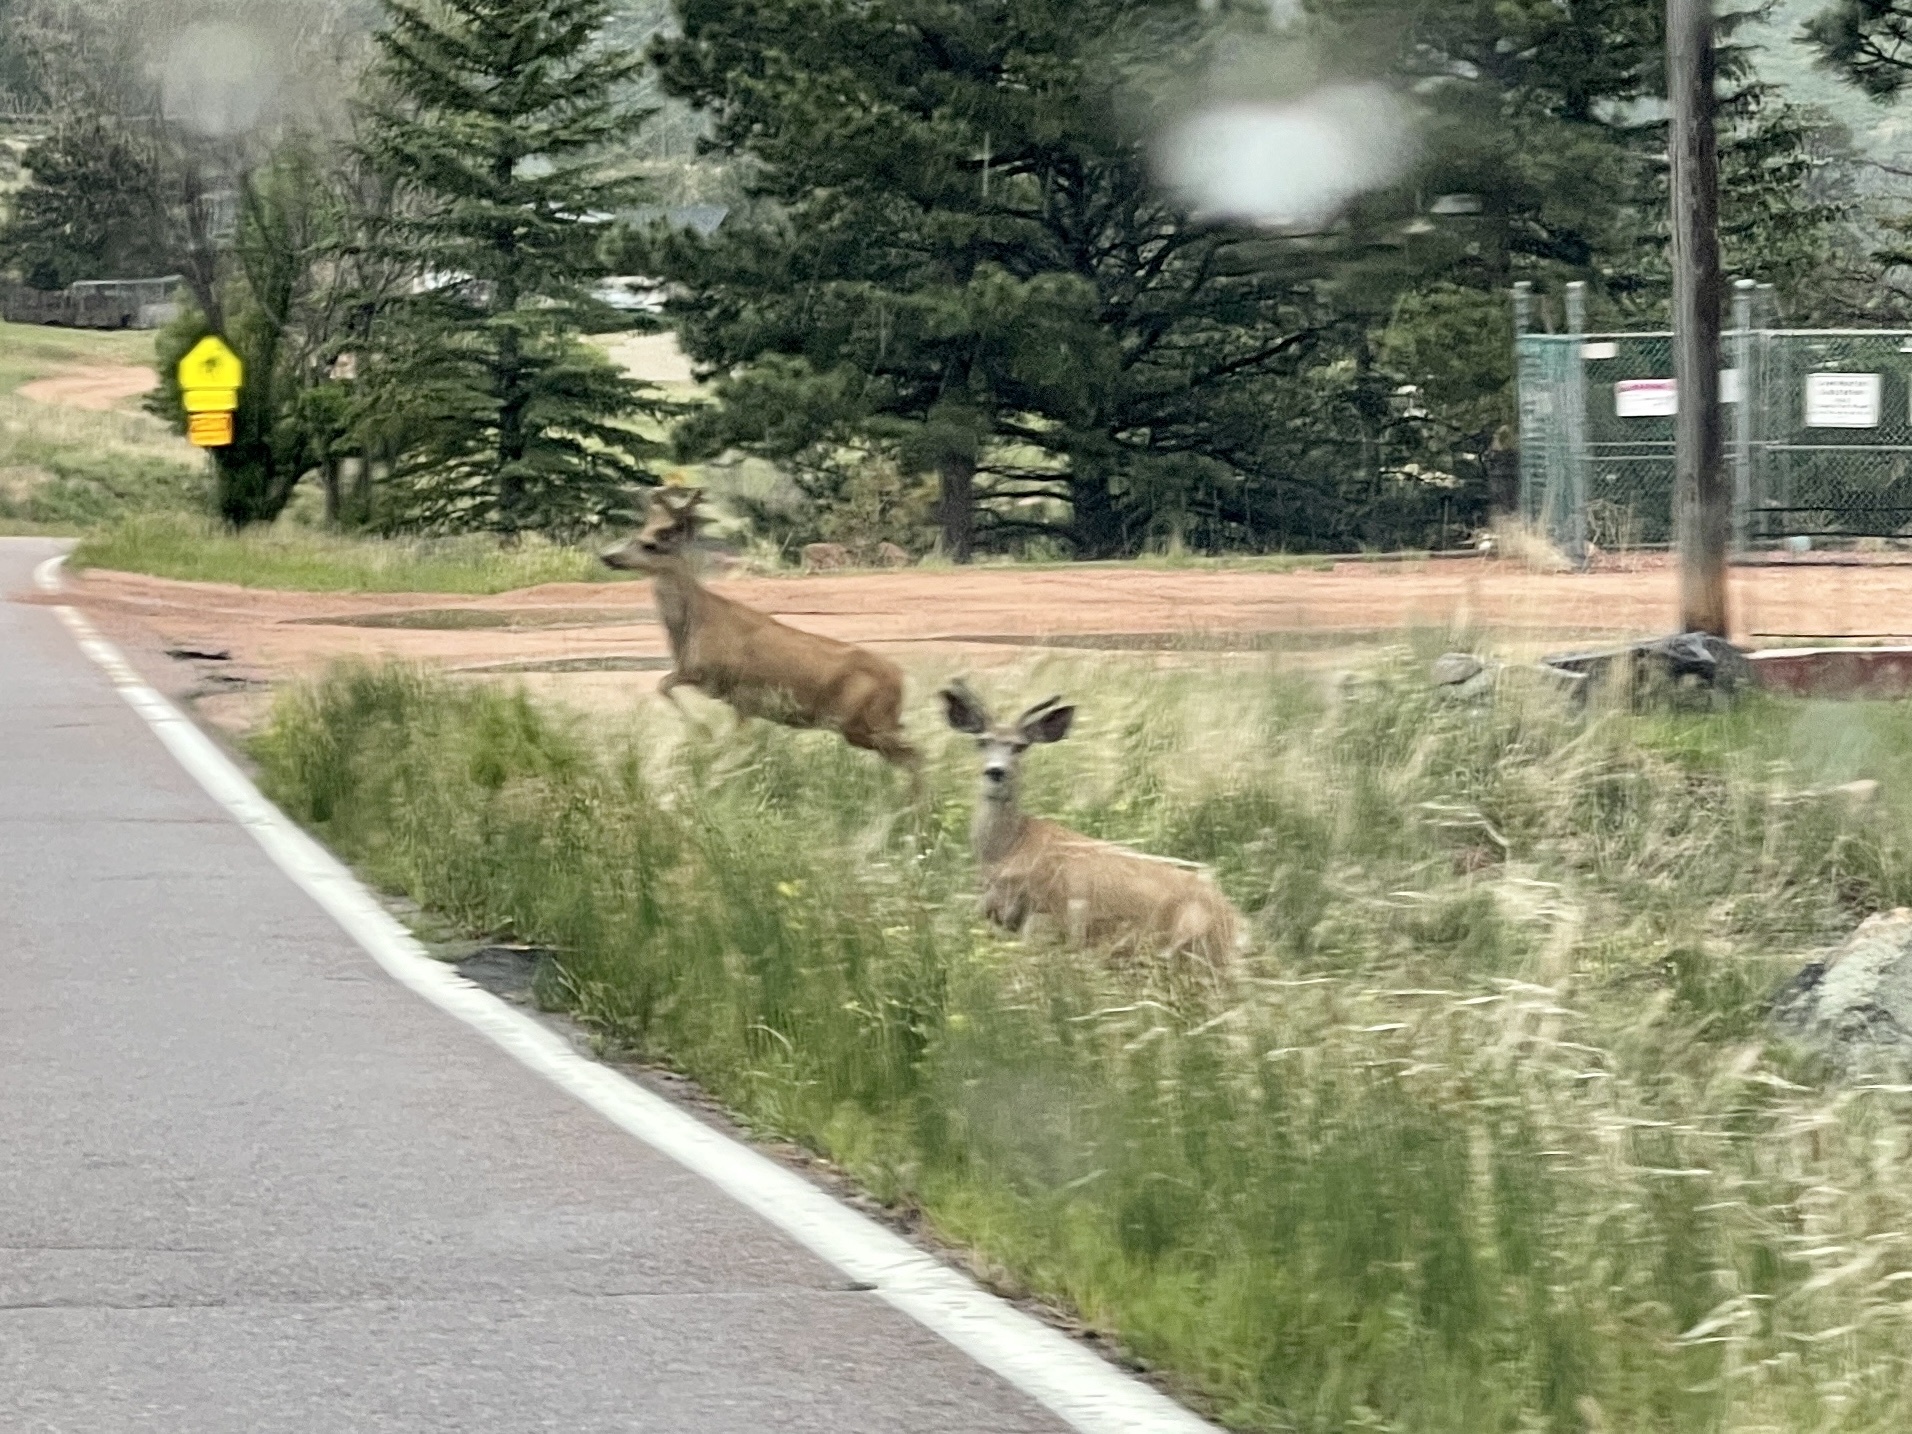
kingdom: Animalia
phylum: Chordata
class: Mammalia
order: Artiodactyla
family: Cervidae
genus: Odocoileus
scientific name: Odocoileus hemionus
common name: Mule deer
